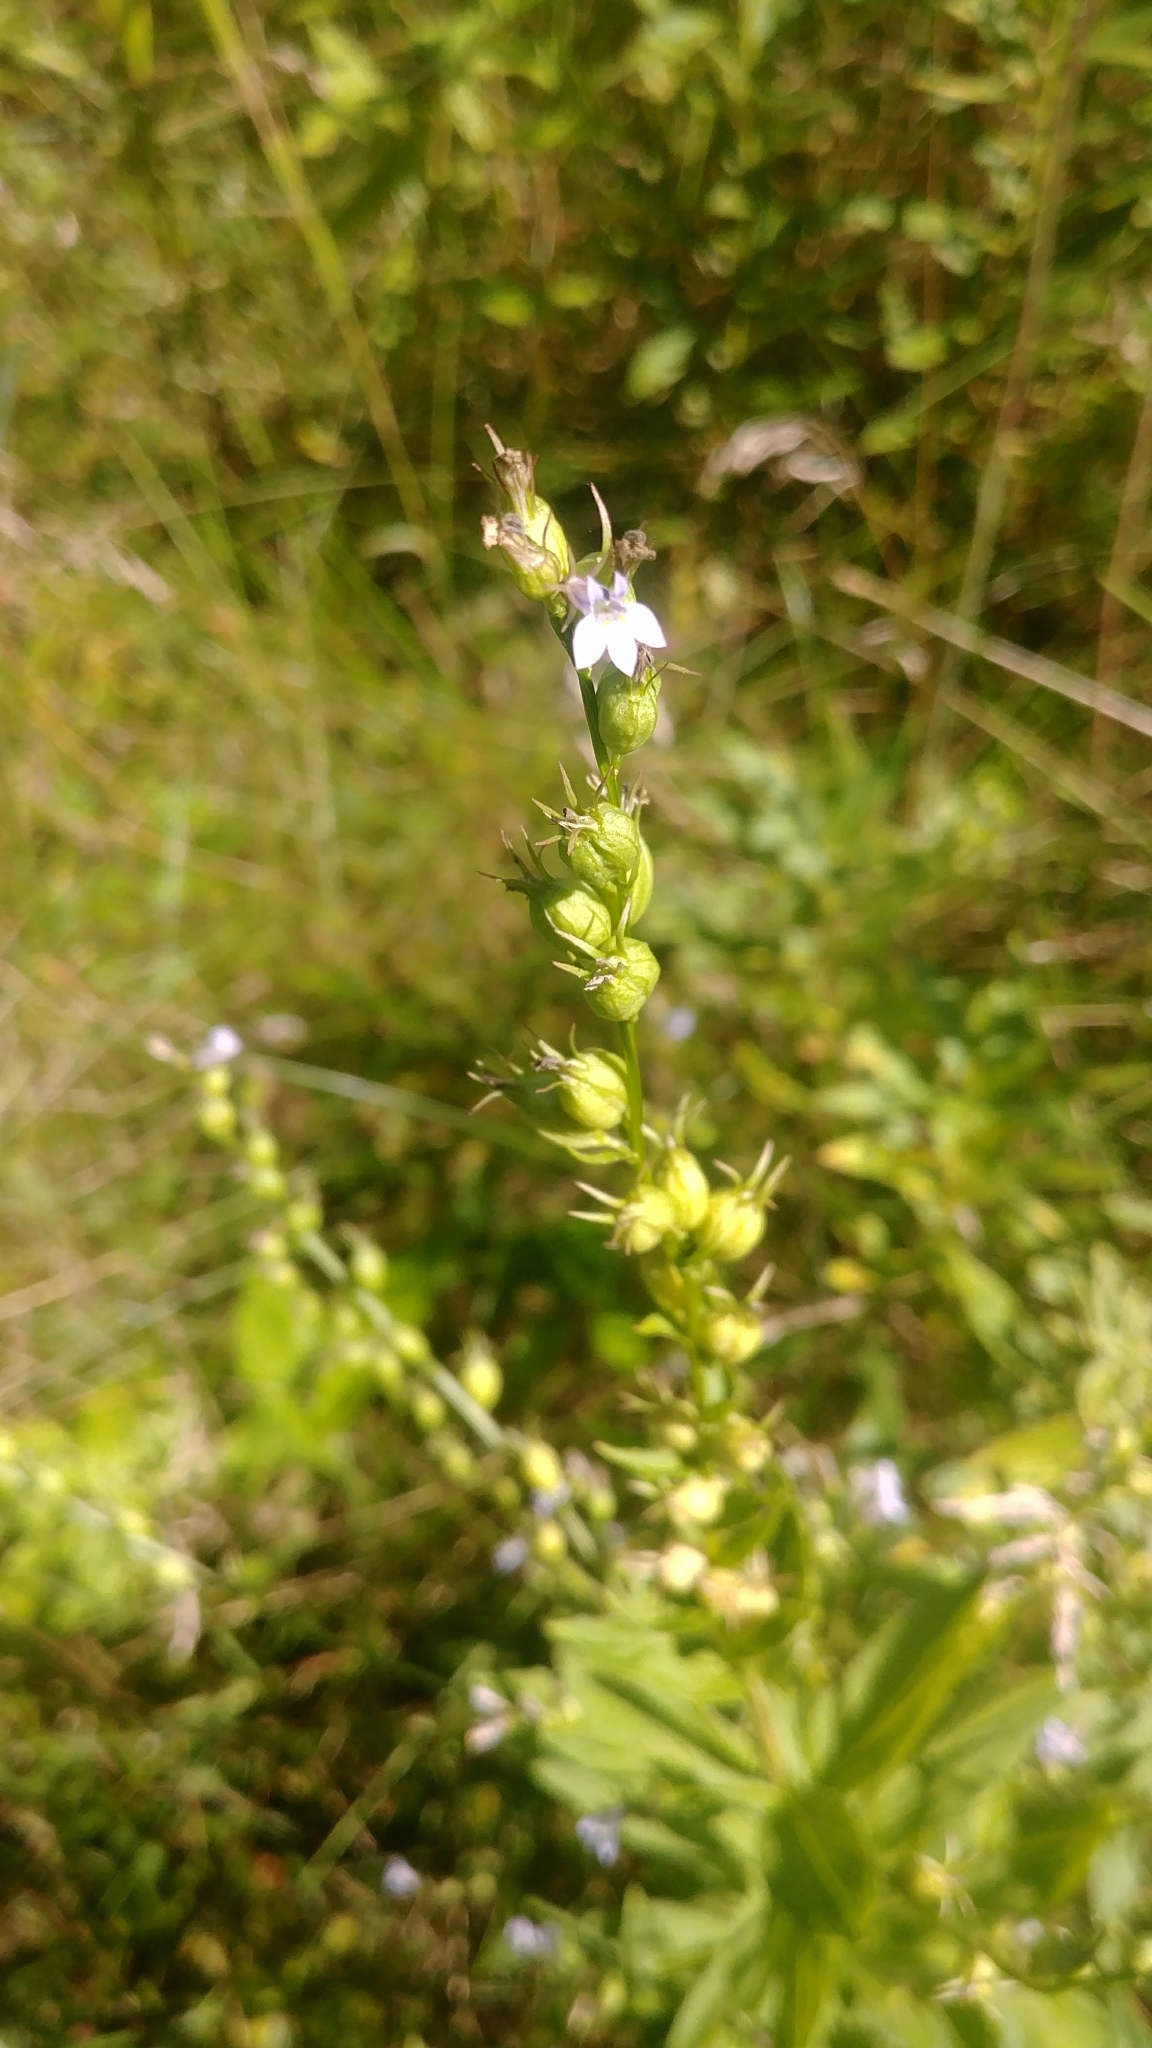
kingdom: Plantae
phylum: Tracheophyta
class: Magnoliopsida
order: Asterales
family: Campanulaceae
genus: Lobelia
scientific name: Lobelia inflata
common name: Indian tobacco
